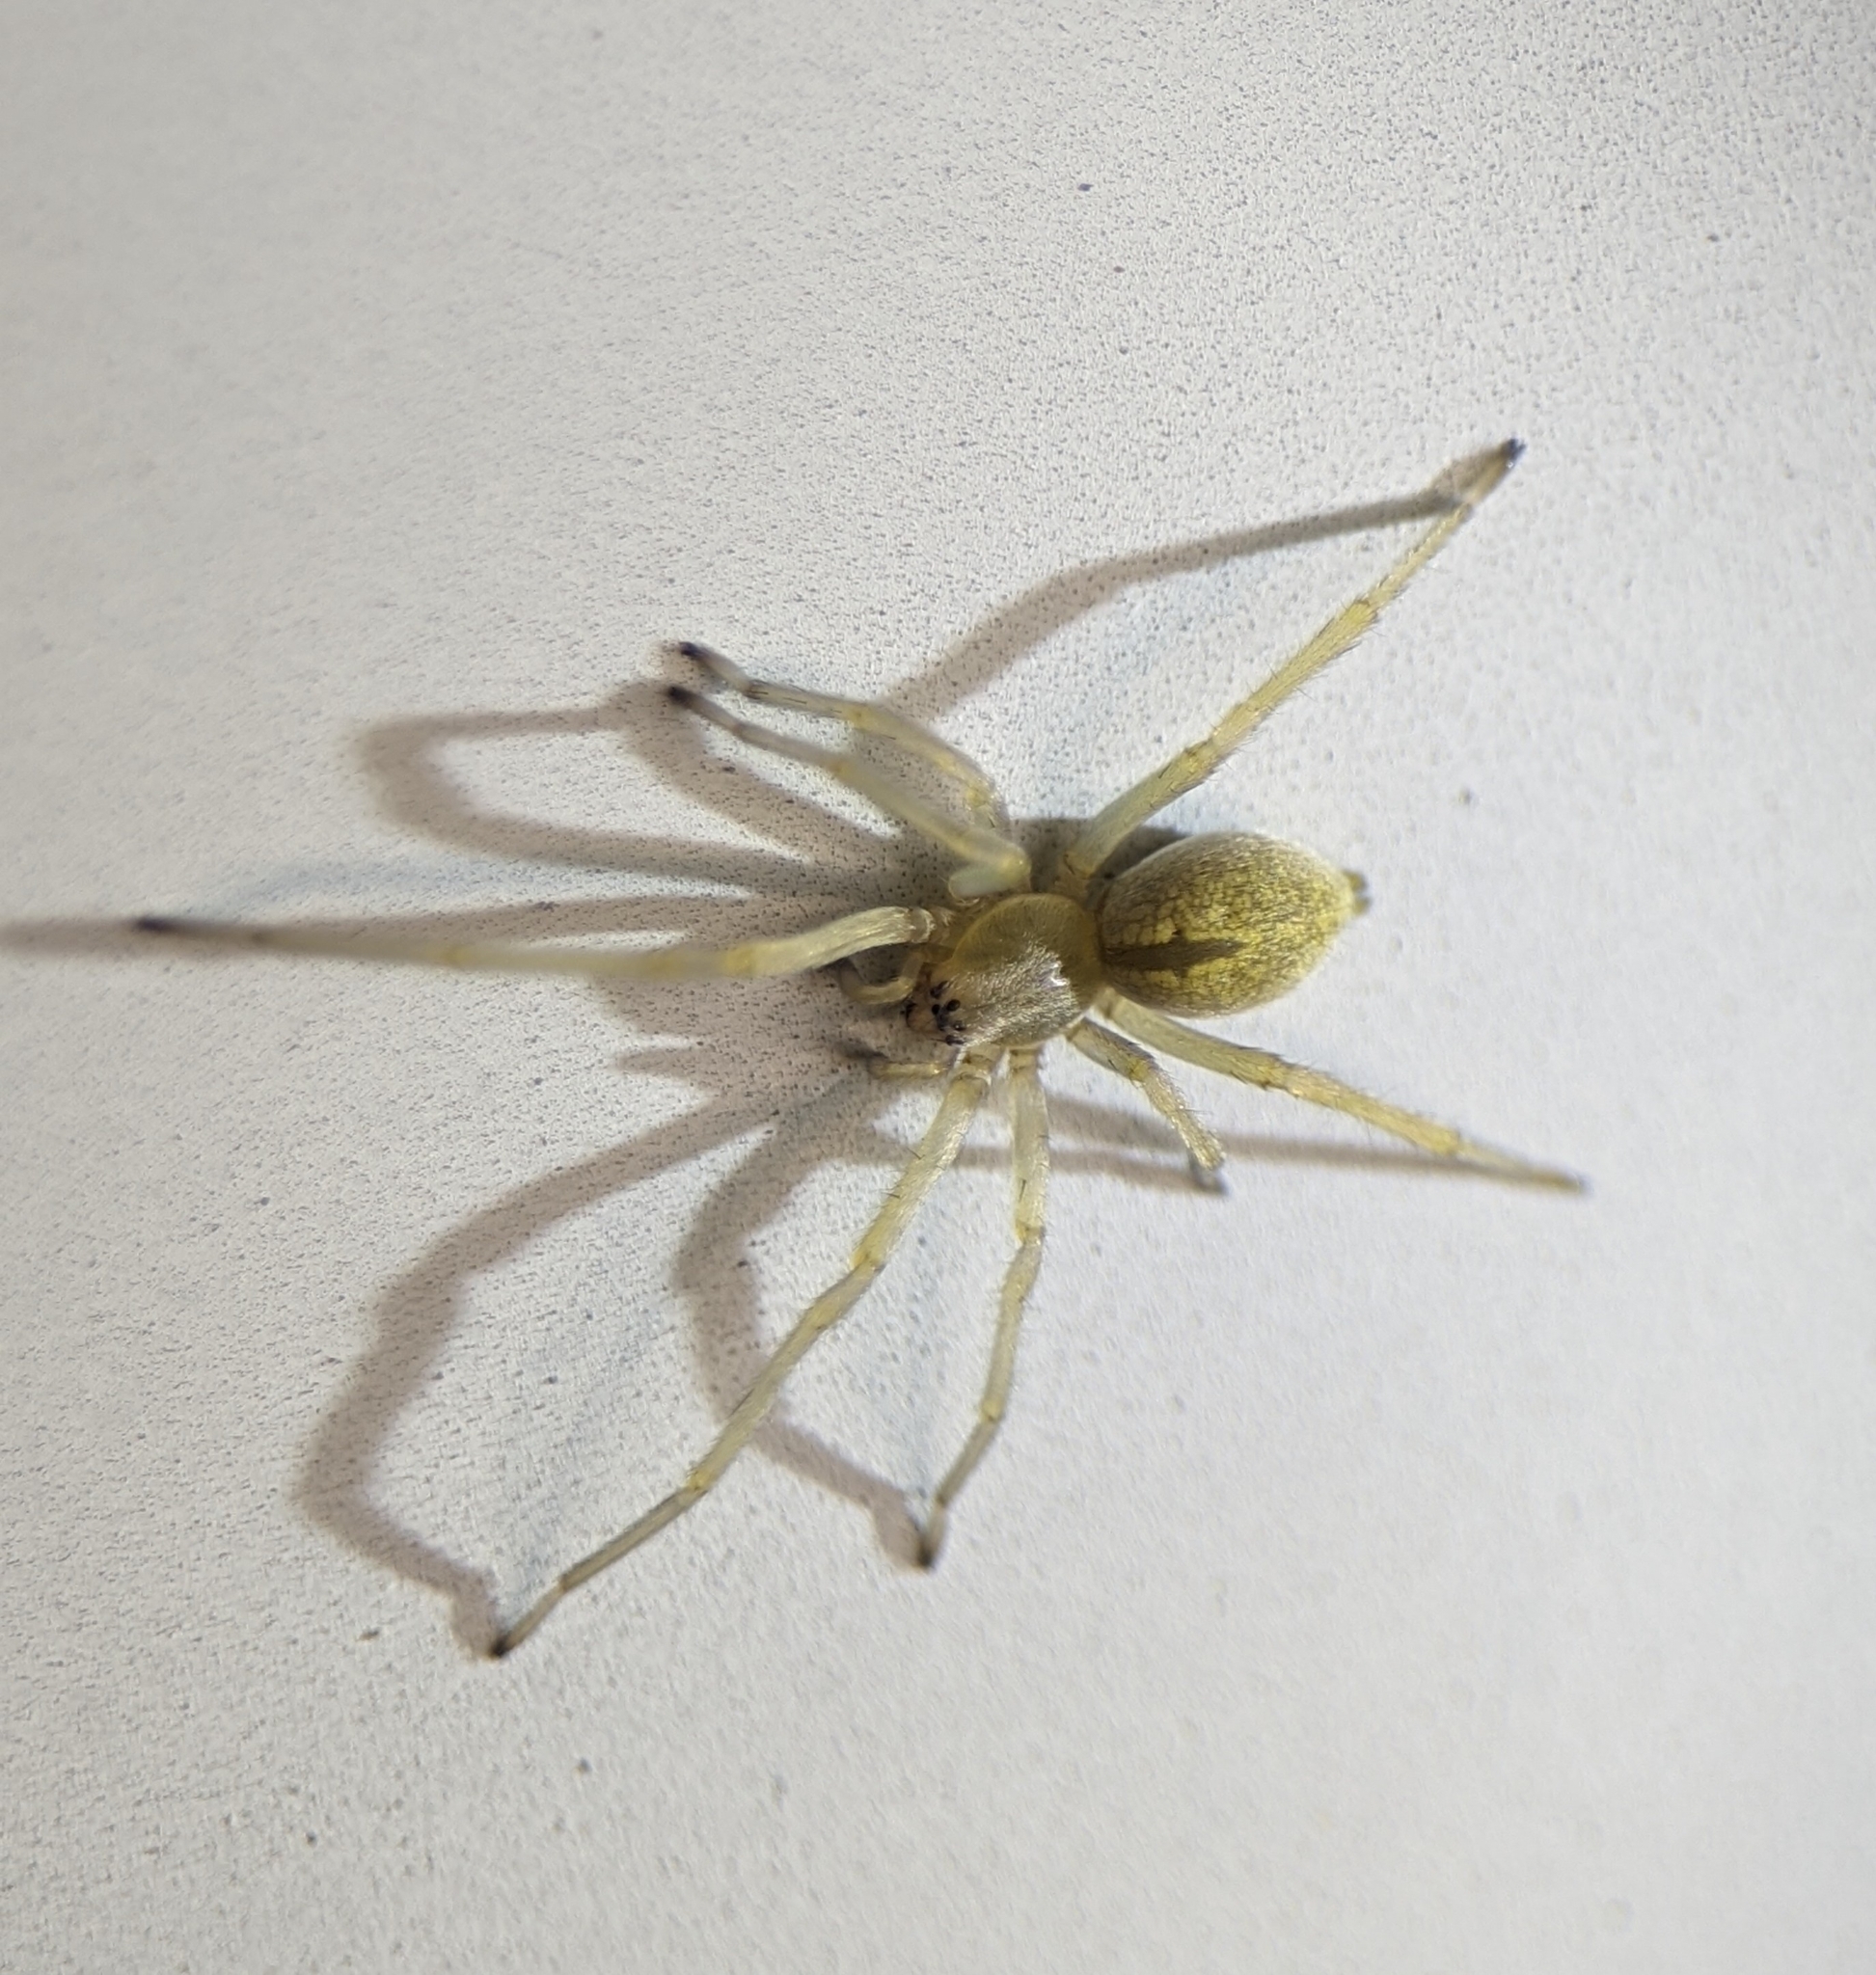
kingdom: Animalia
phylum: Arthropoda
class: Arachnida
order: Araneae
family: Cheiracanthiidae
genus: Cheiracanthium
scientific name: Cheiracanthium mildei
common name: Northern yellow sac spider
